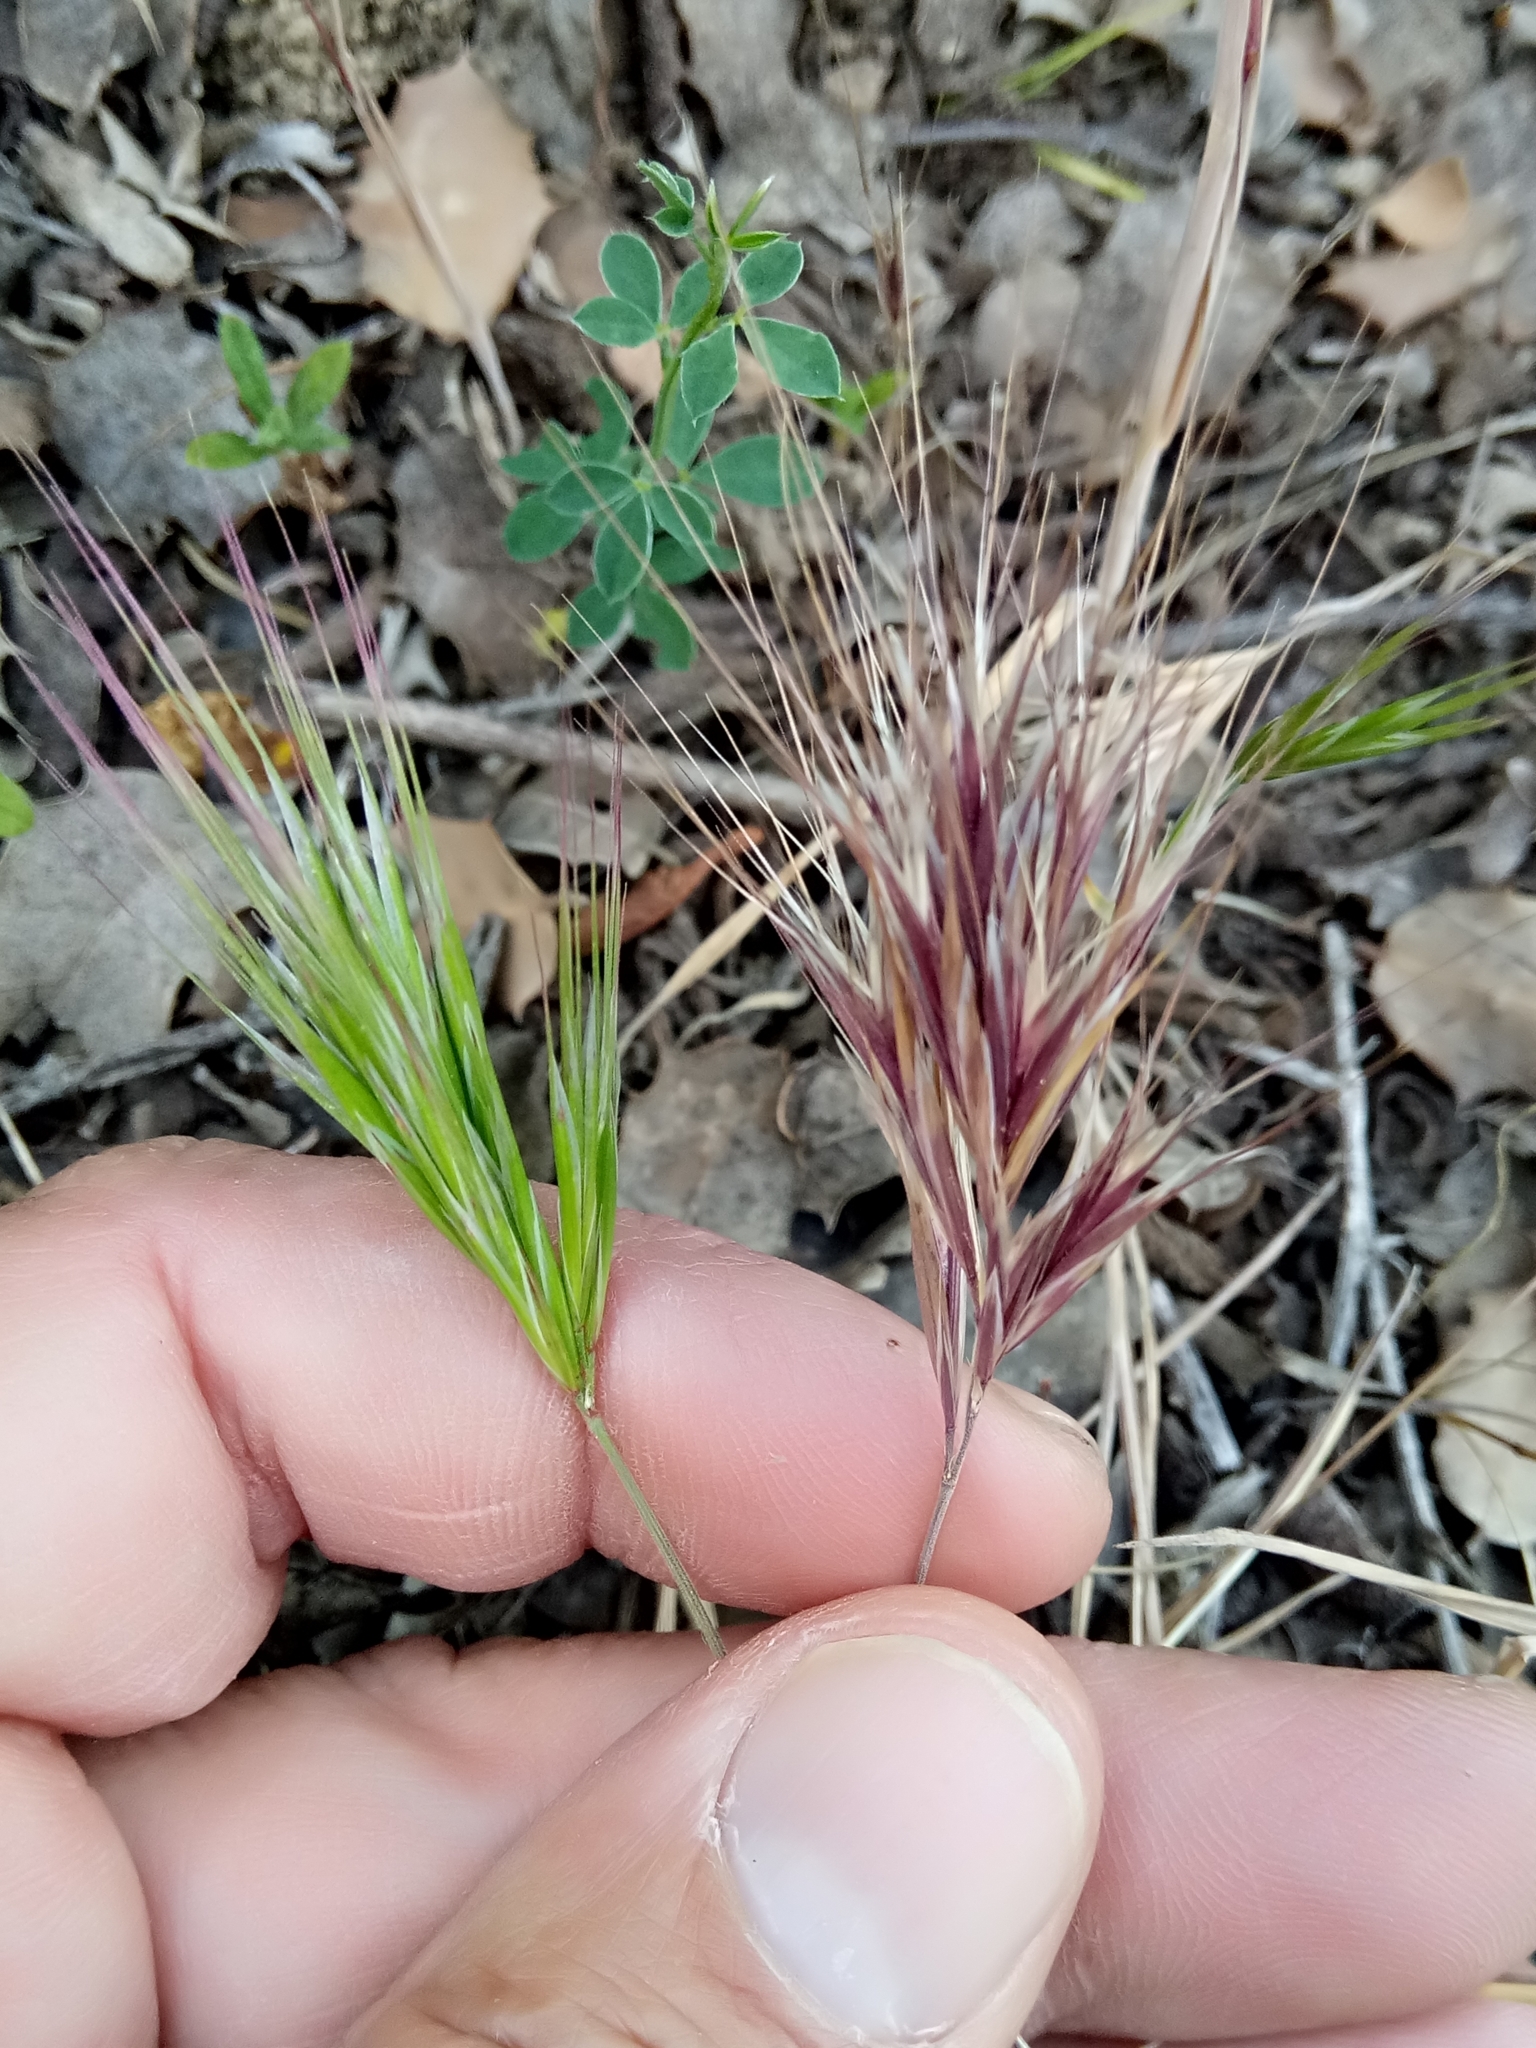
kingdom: Plantae
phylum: Tracheophyta
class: Liliopsida
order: Poales
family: Poaceae
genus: Bromus
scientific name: Bromus rubens
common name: Red brome
